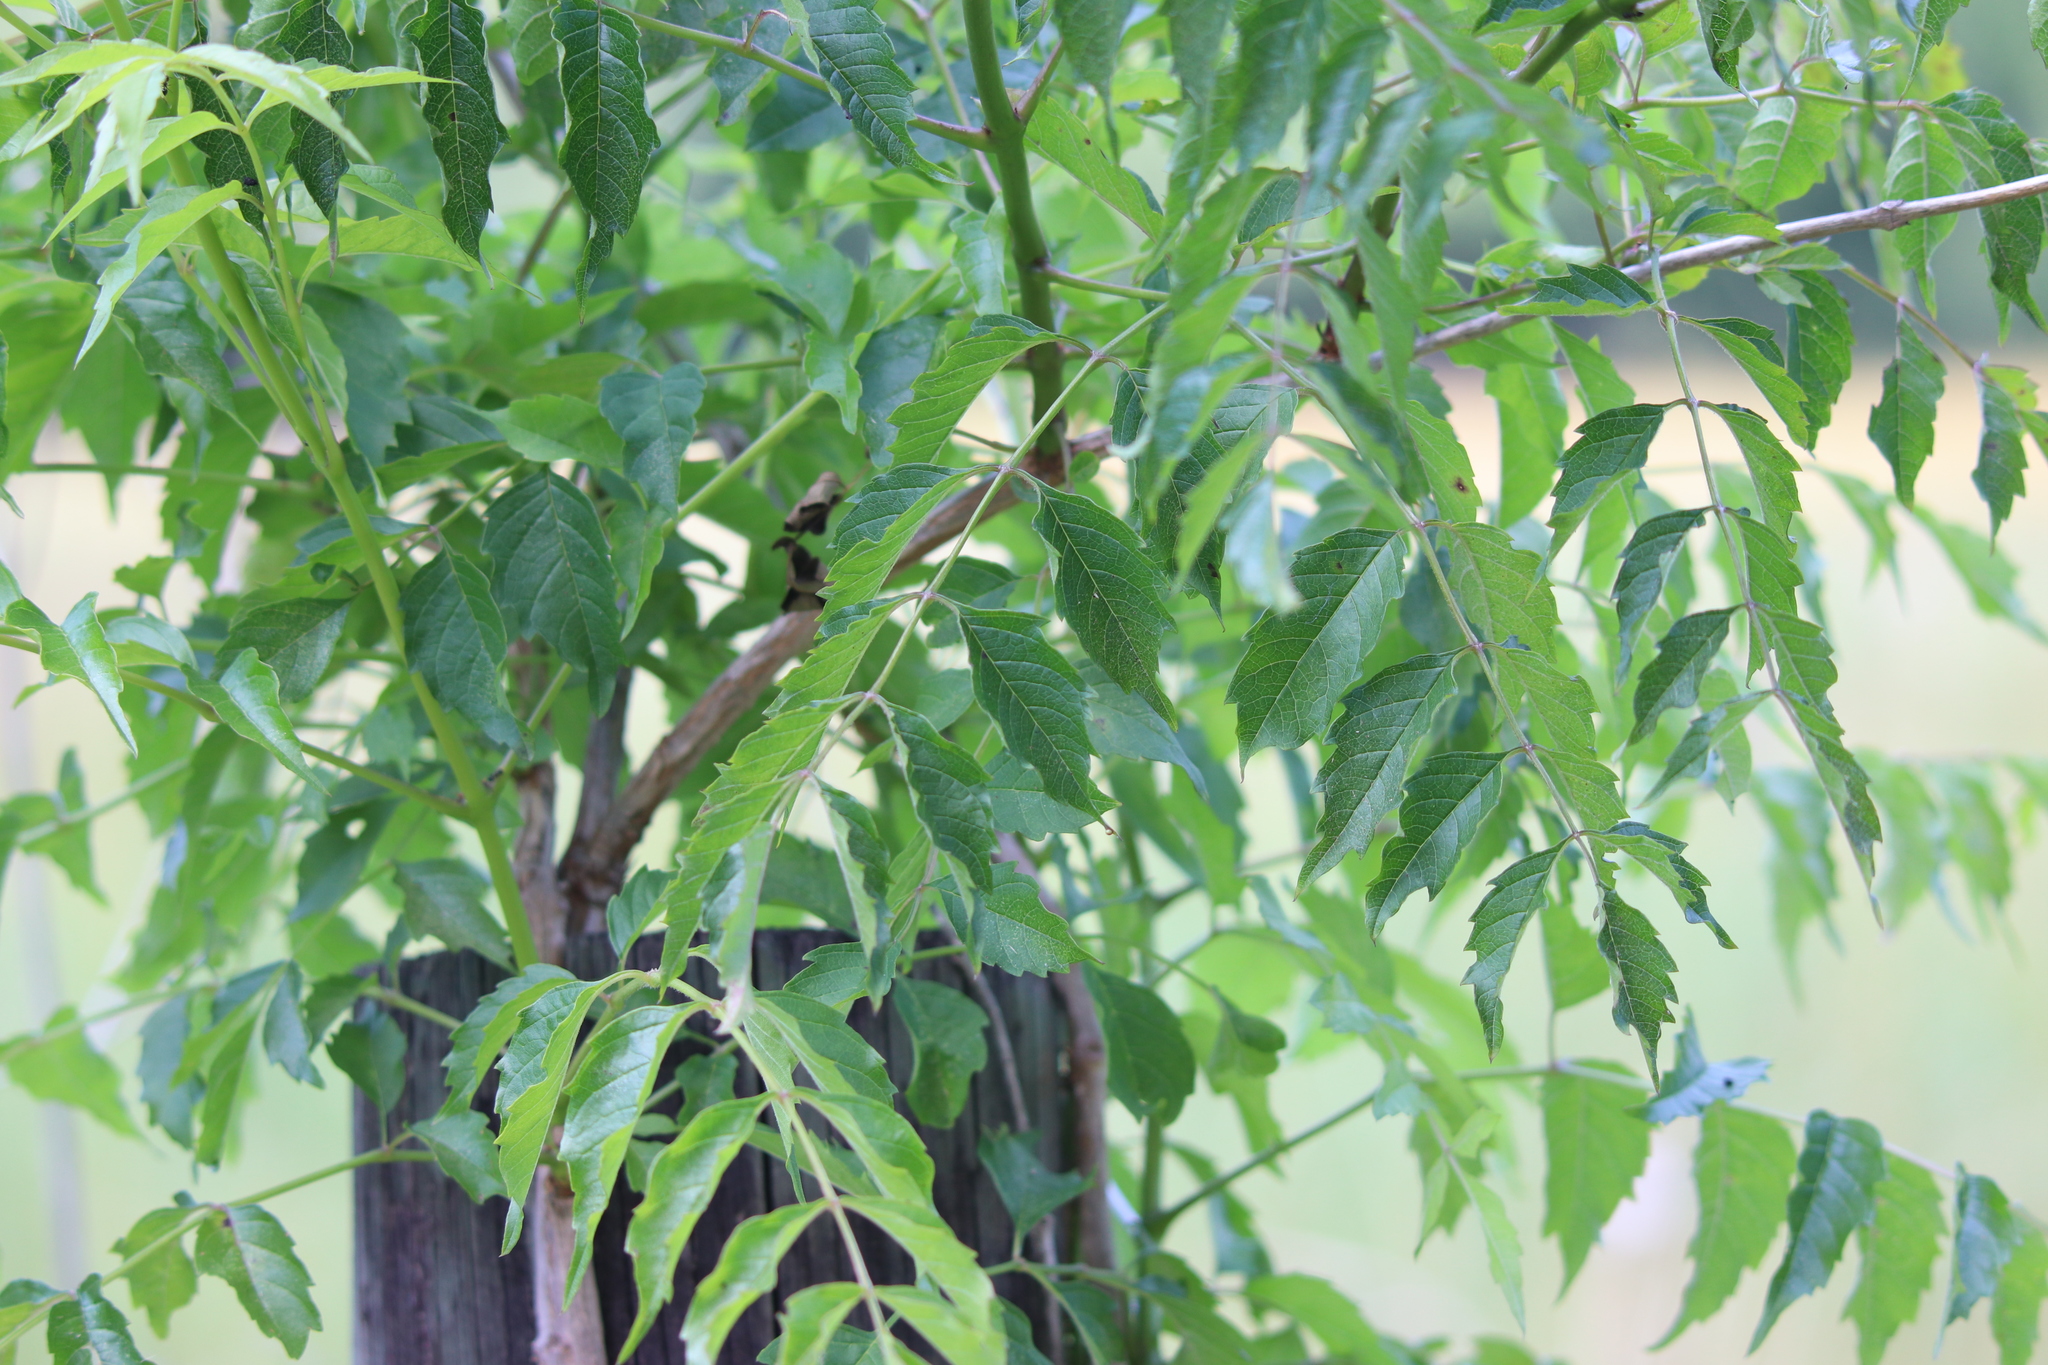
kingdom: Plantae
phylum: Tracheophyta
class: Magnoliopsida
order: Lamiales
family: Bignoniaceae
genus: Campsis
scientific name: Campsis radicans
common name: Trumpet-creeper
